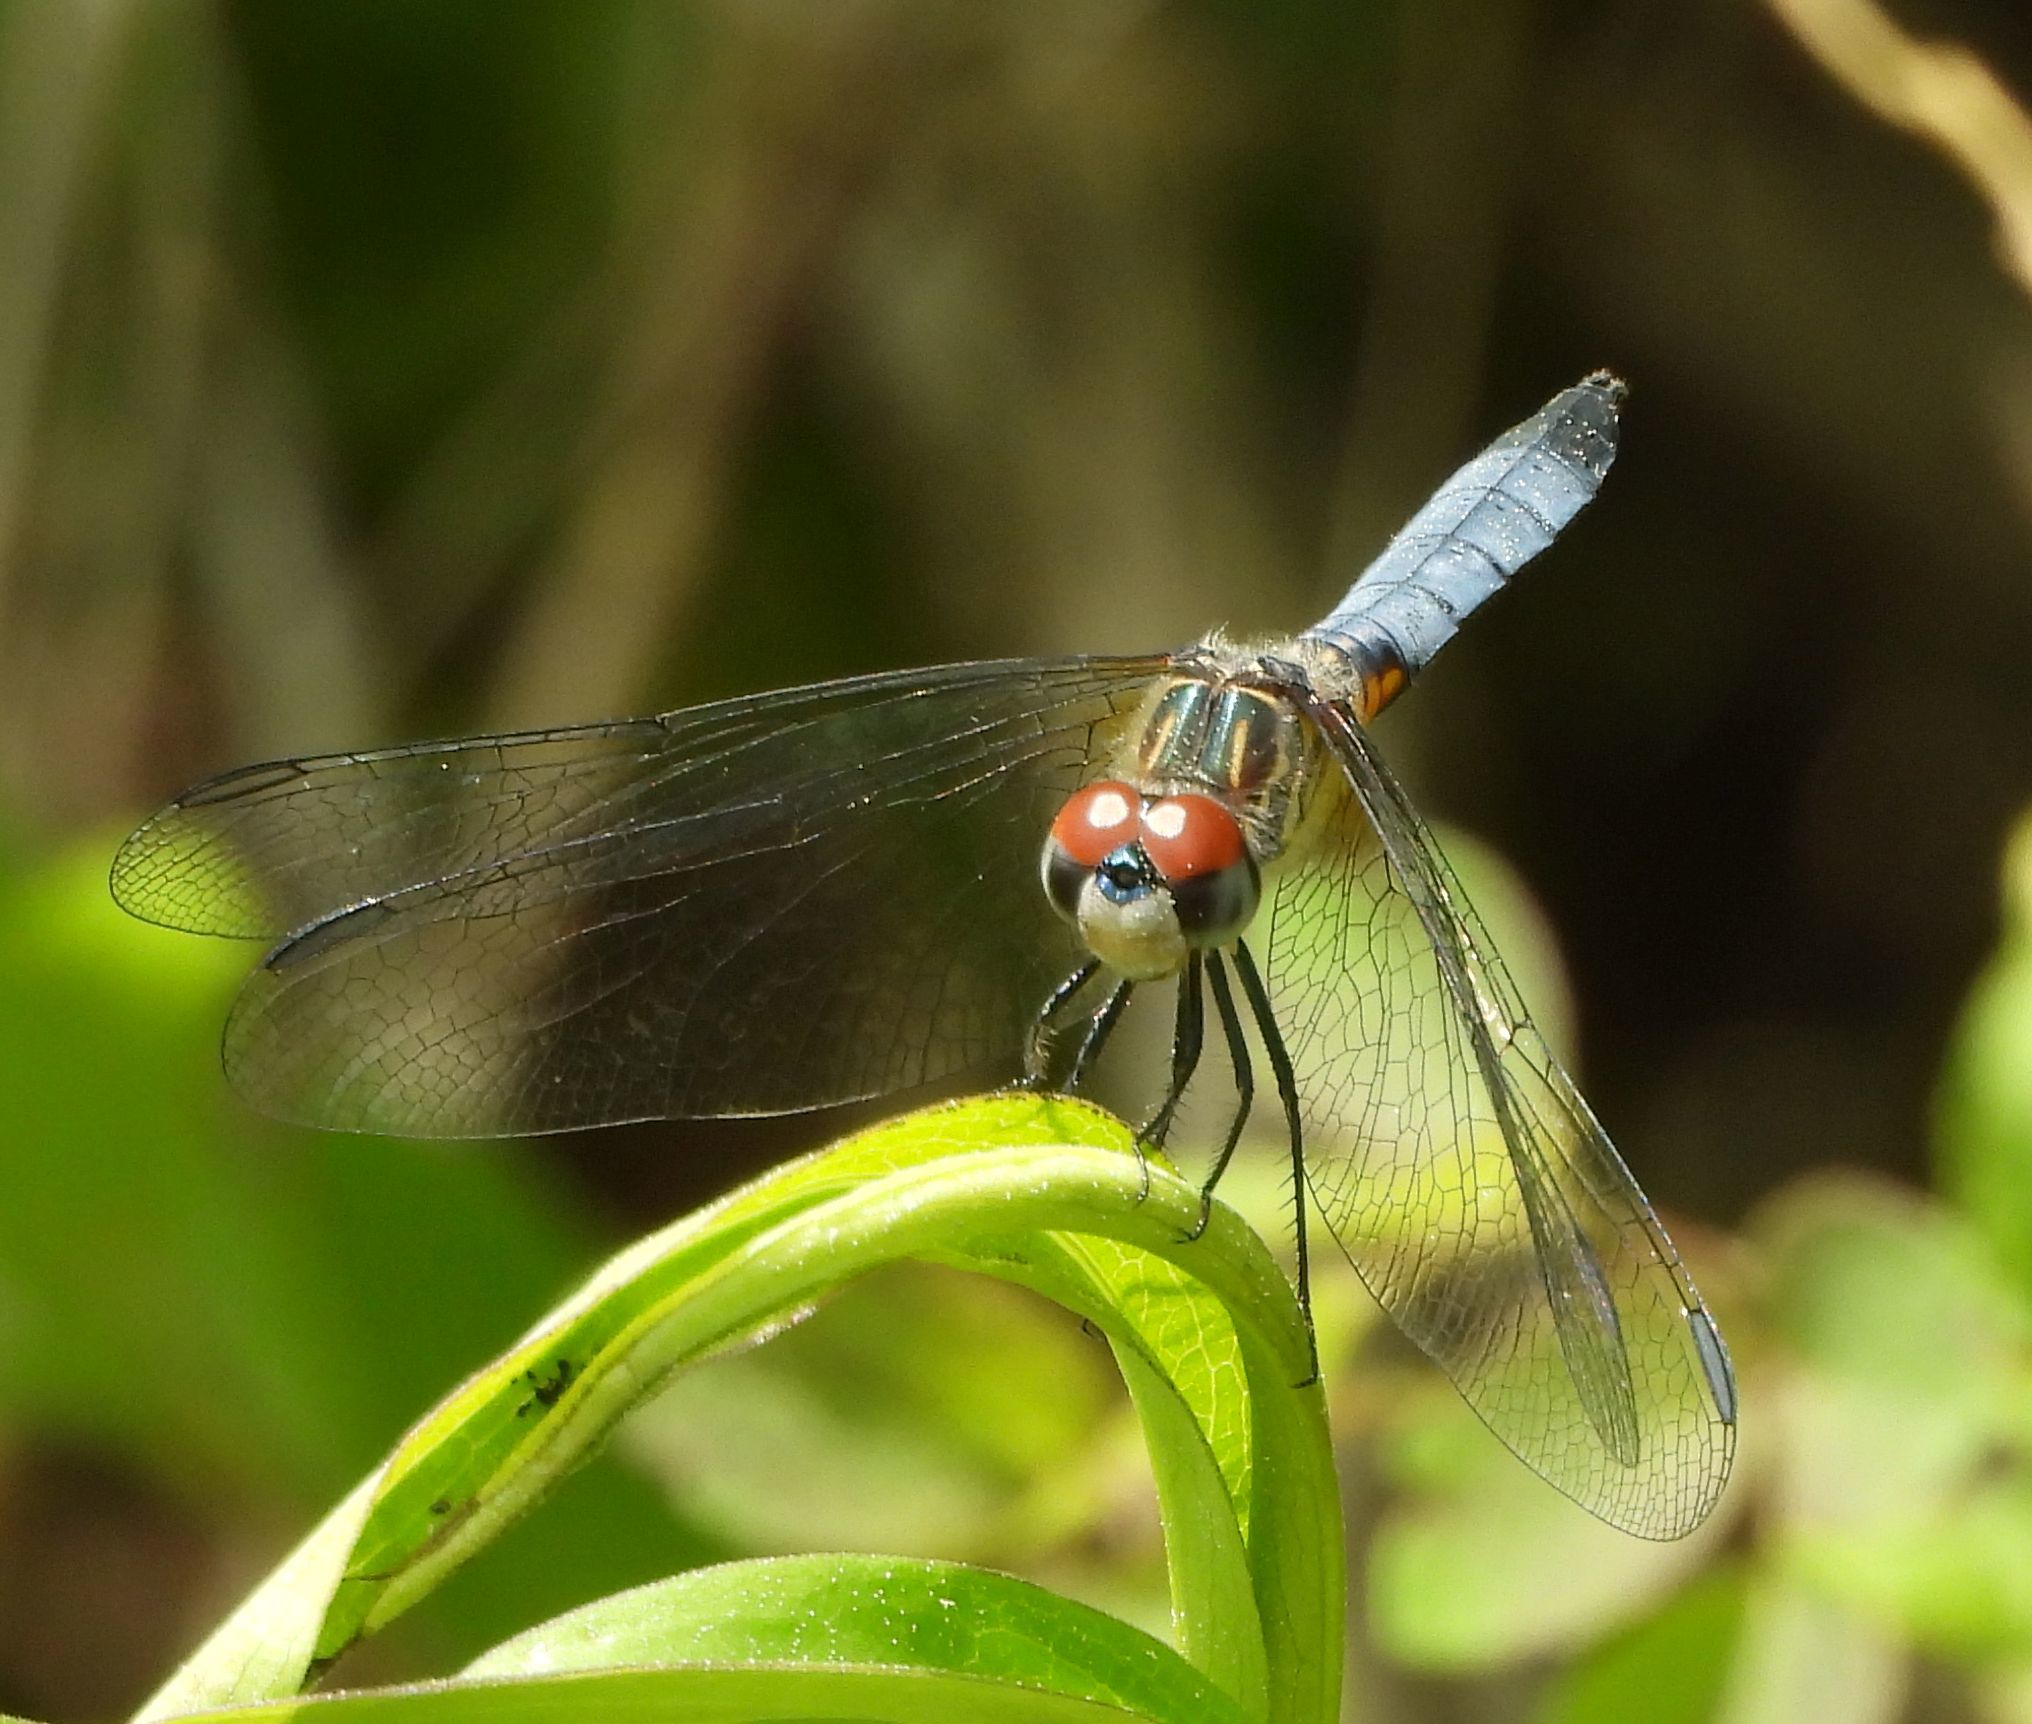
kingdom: Animalia
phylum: Arthropoda
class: Insecta
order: Odonata
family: Libellulidae
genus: Pachydiplax
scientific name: Pachydiplax longipennis
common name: Blue dasher
